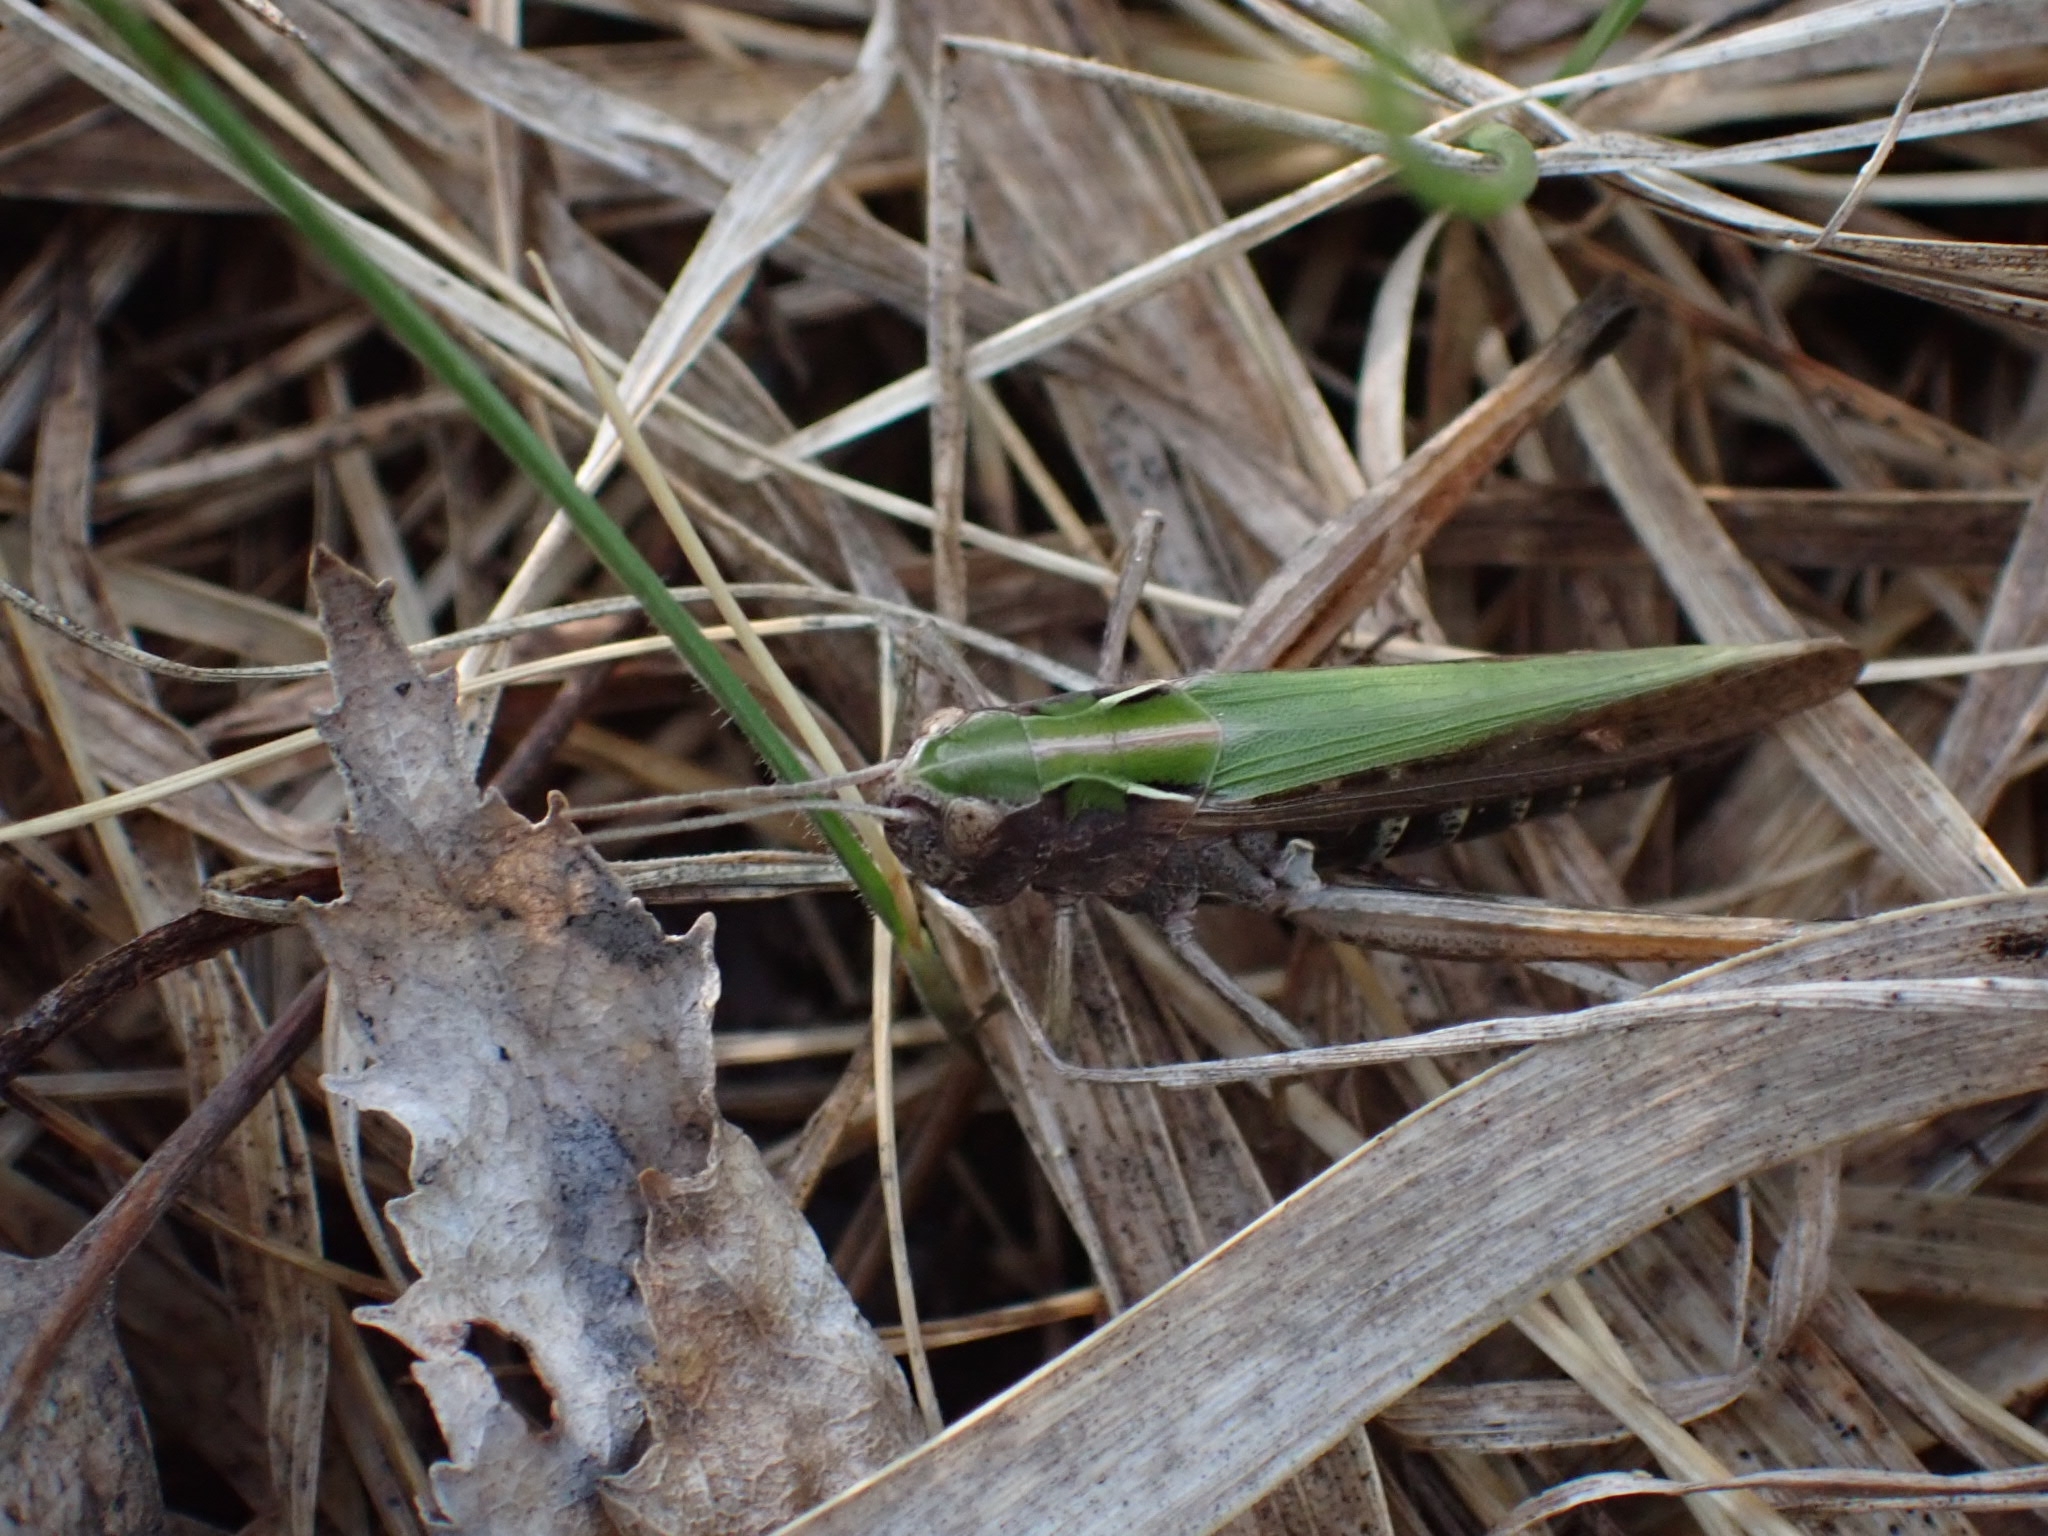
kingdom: Animalia
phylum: Arthropoda
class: Insecta
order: Orthoptera
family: Acrididae
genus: Omocestus
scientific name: Omocestus viridulus
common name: Common green grasshopper
